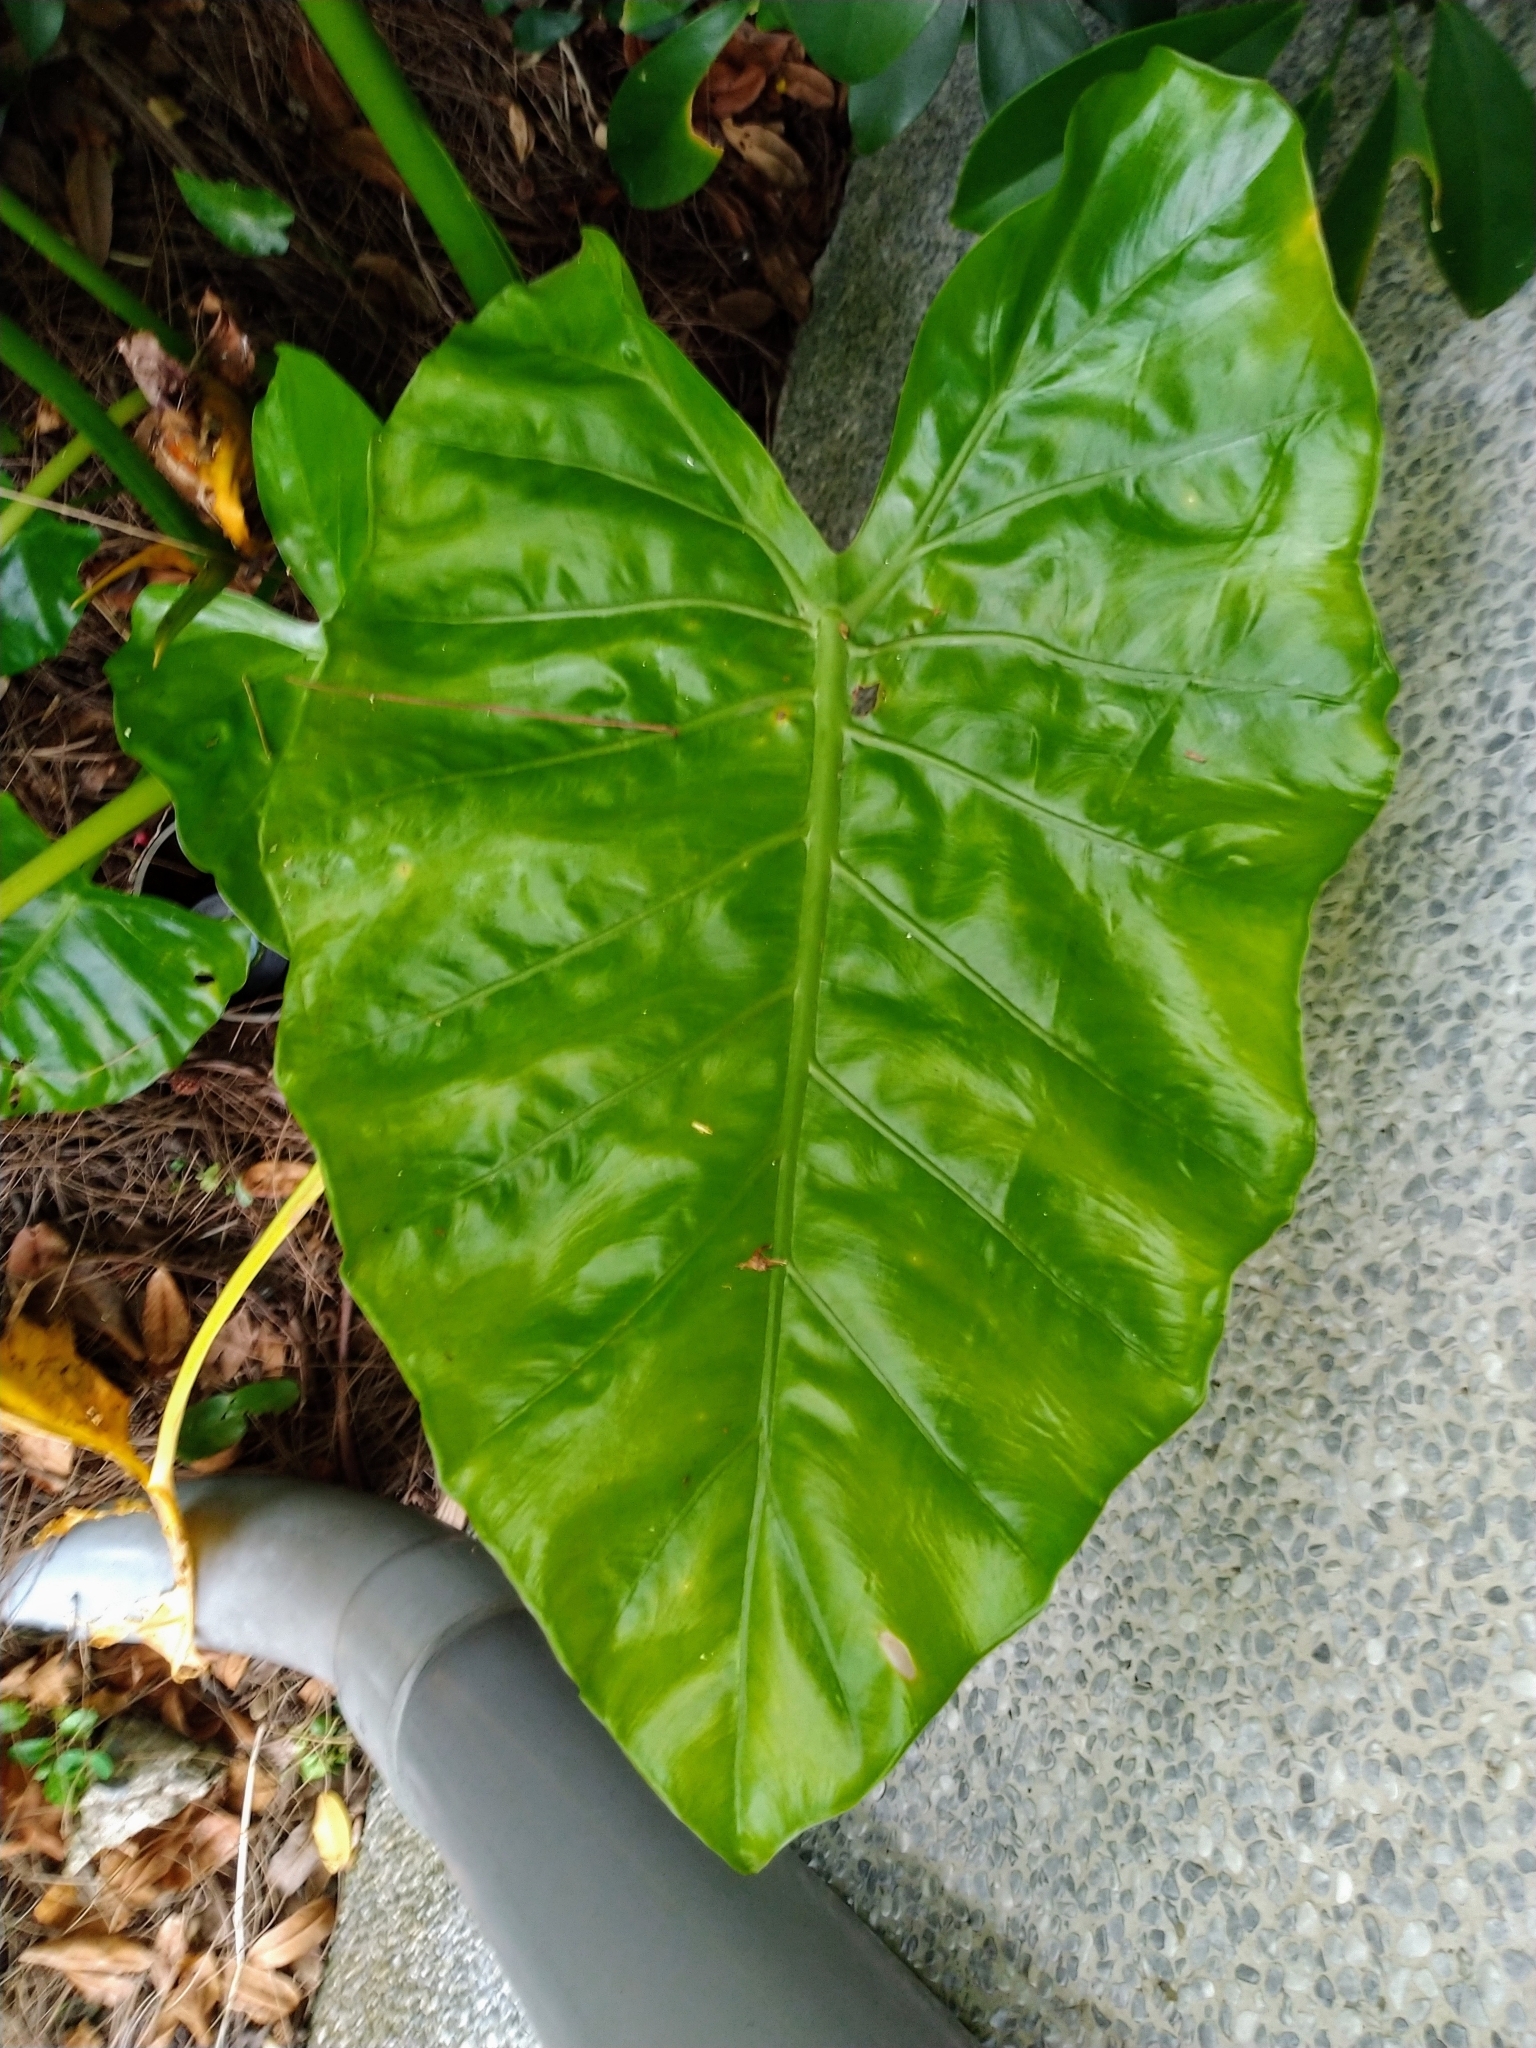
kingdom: Plantae
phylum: Tracheophyta
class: Liliopsida
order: Alismatales
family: Araceae
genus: Alocasia
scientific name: Alocasia odora
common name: Asian taro
